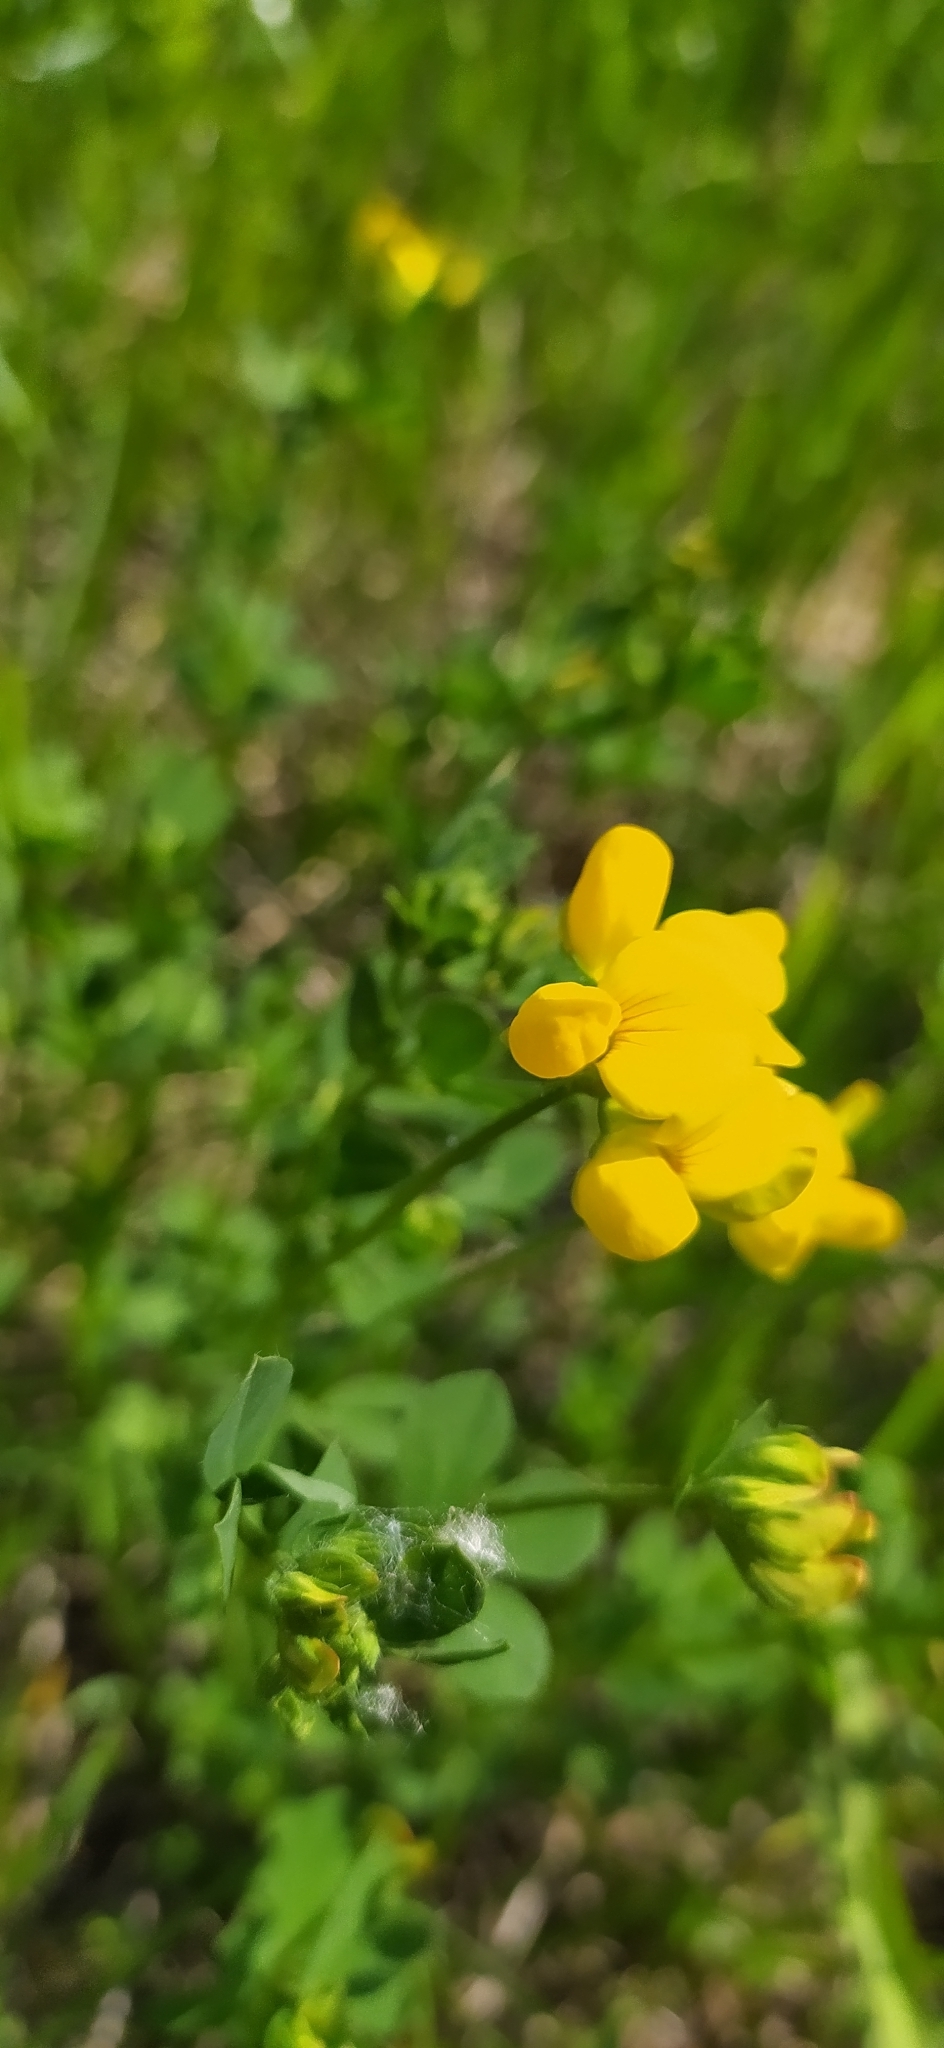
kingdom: Plantae
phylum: Tracheophyta
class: Magnoliopsida
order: Fabales
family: Fabaceae
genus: Lotus
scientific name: Lotus corniculatus
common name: Common bird's-foot-trefoil
